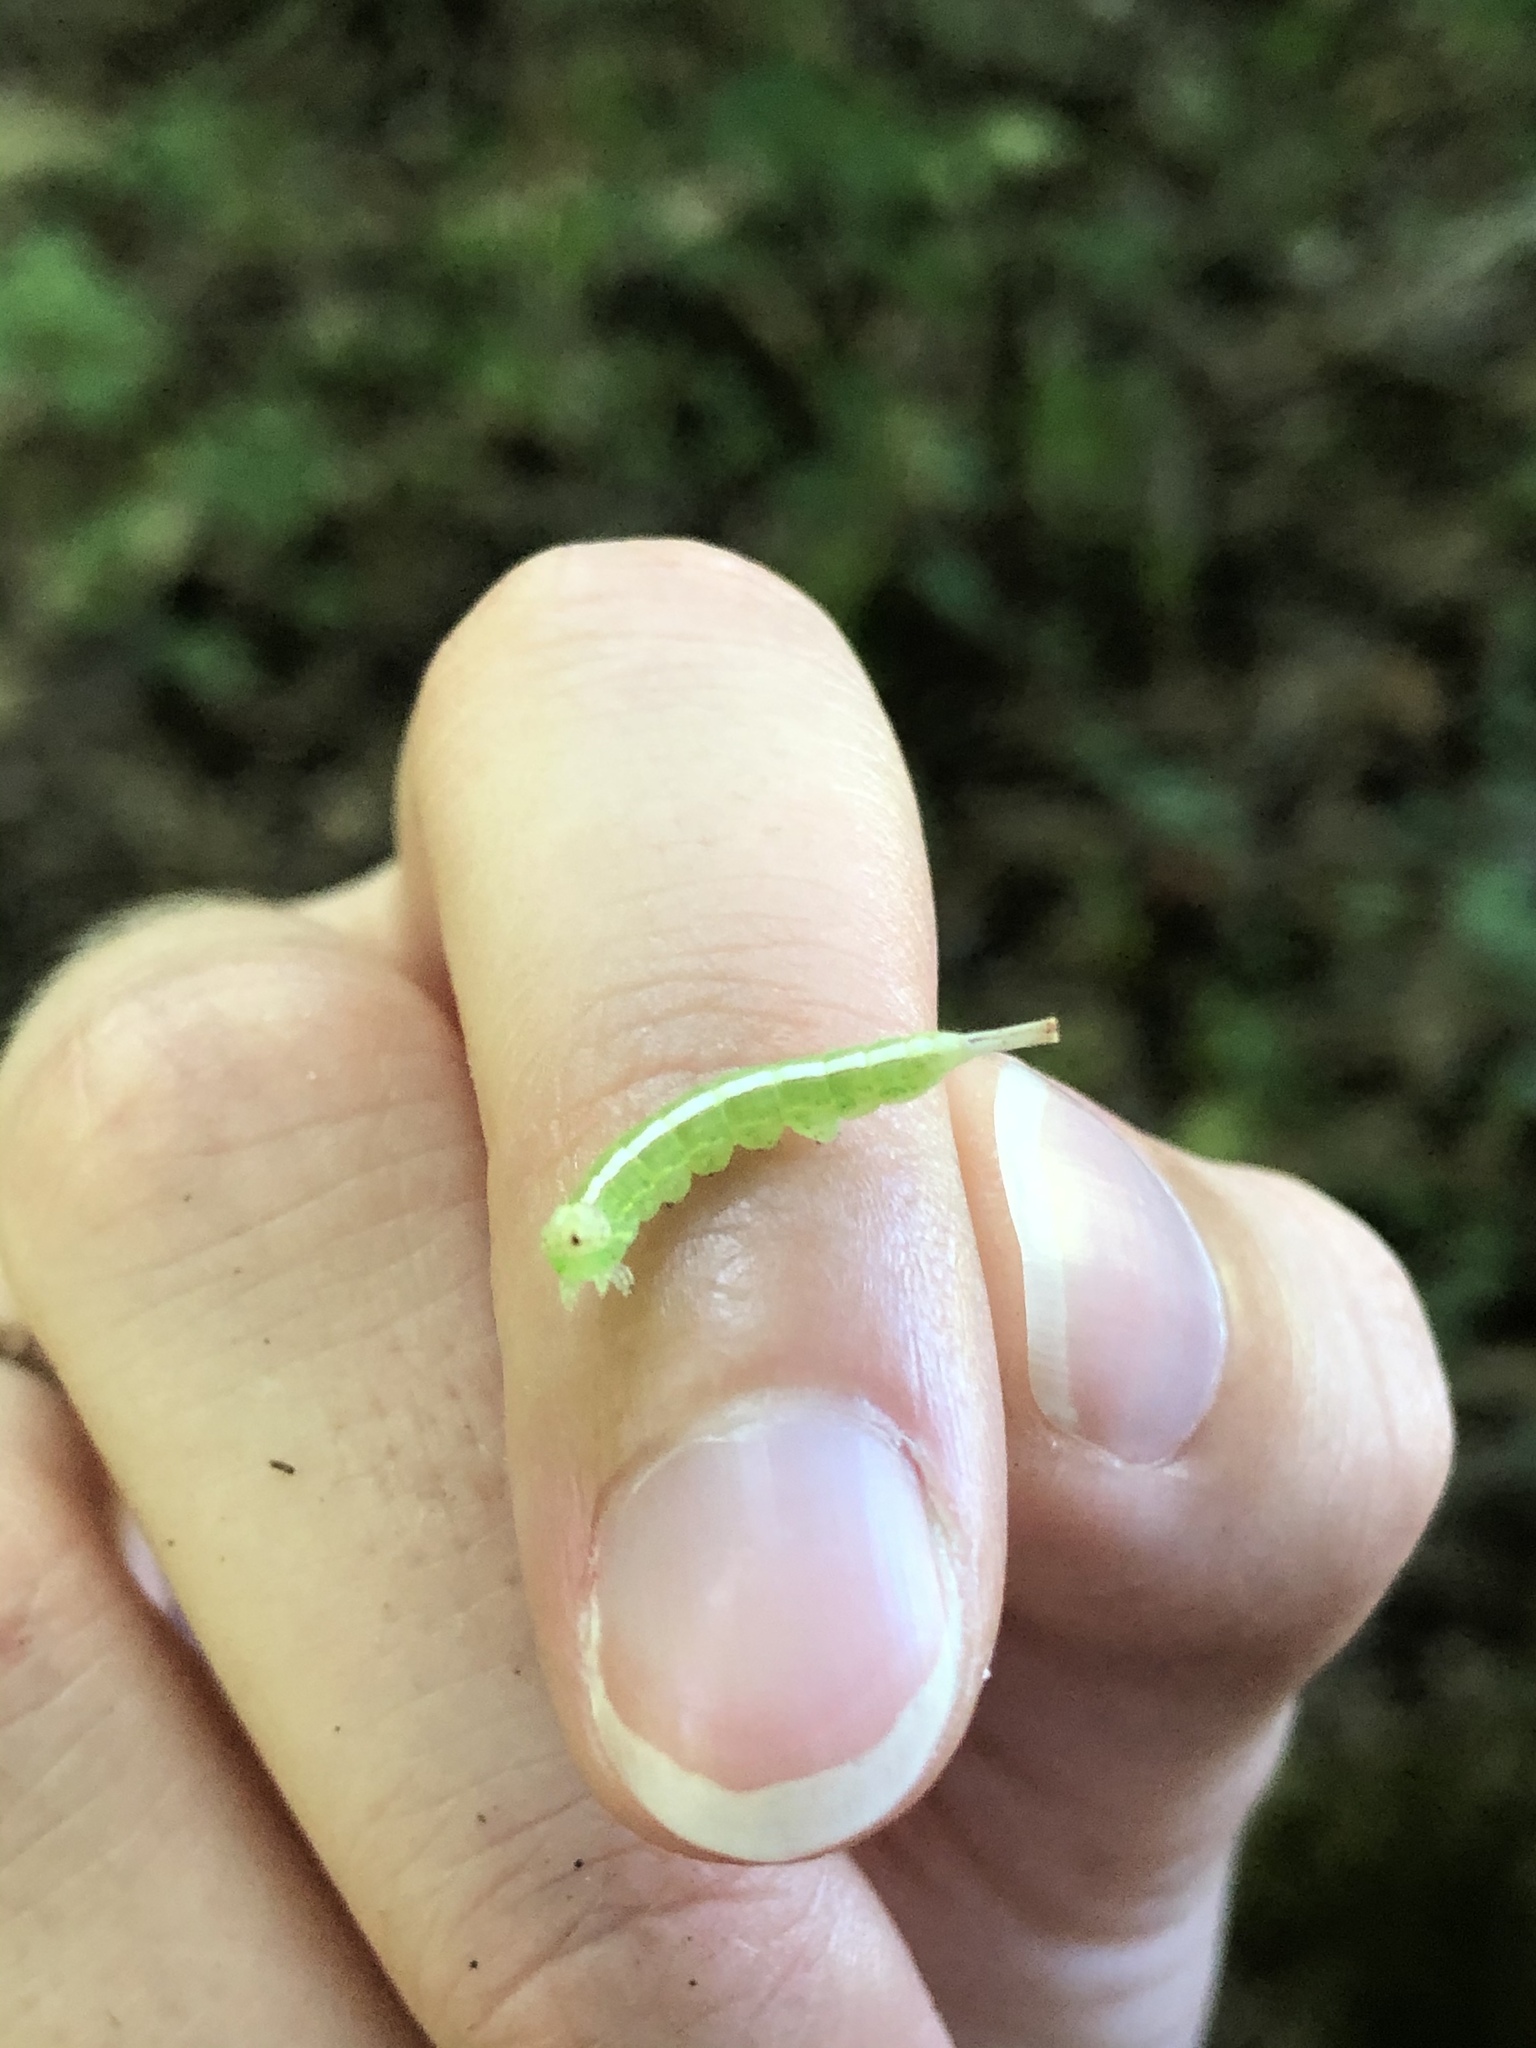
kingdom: Animalia
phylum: Arthropoda
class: Insecta
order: Lepidoptera
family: Notodontidae
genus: Misogada
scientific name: Misogada unicolor
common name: Drab prominent
